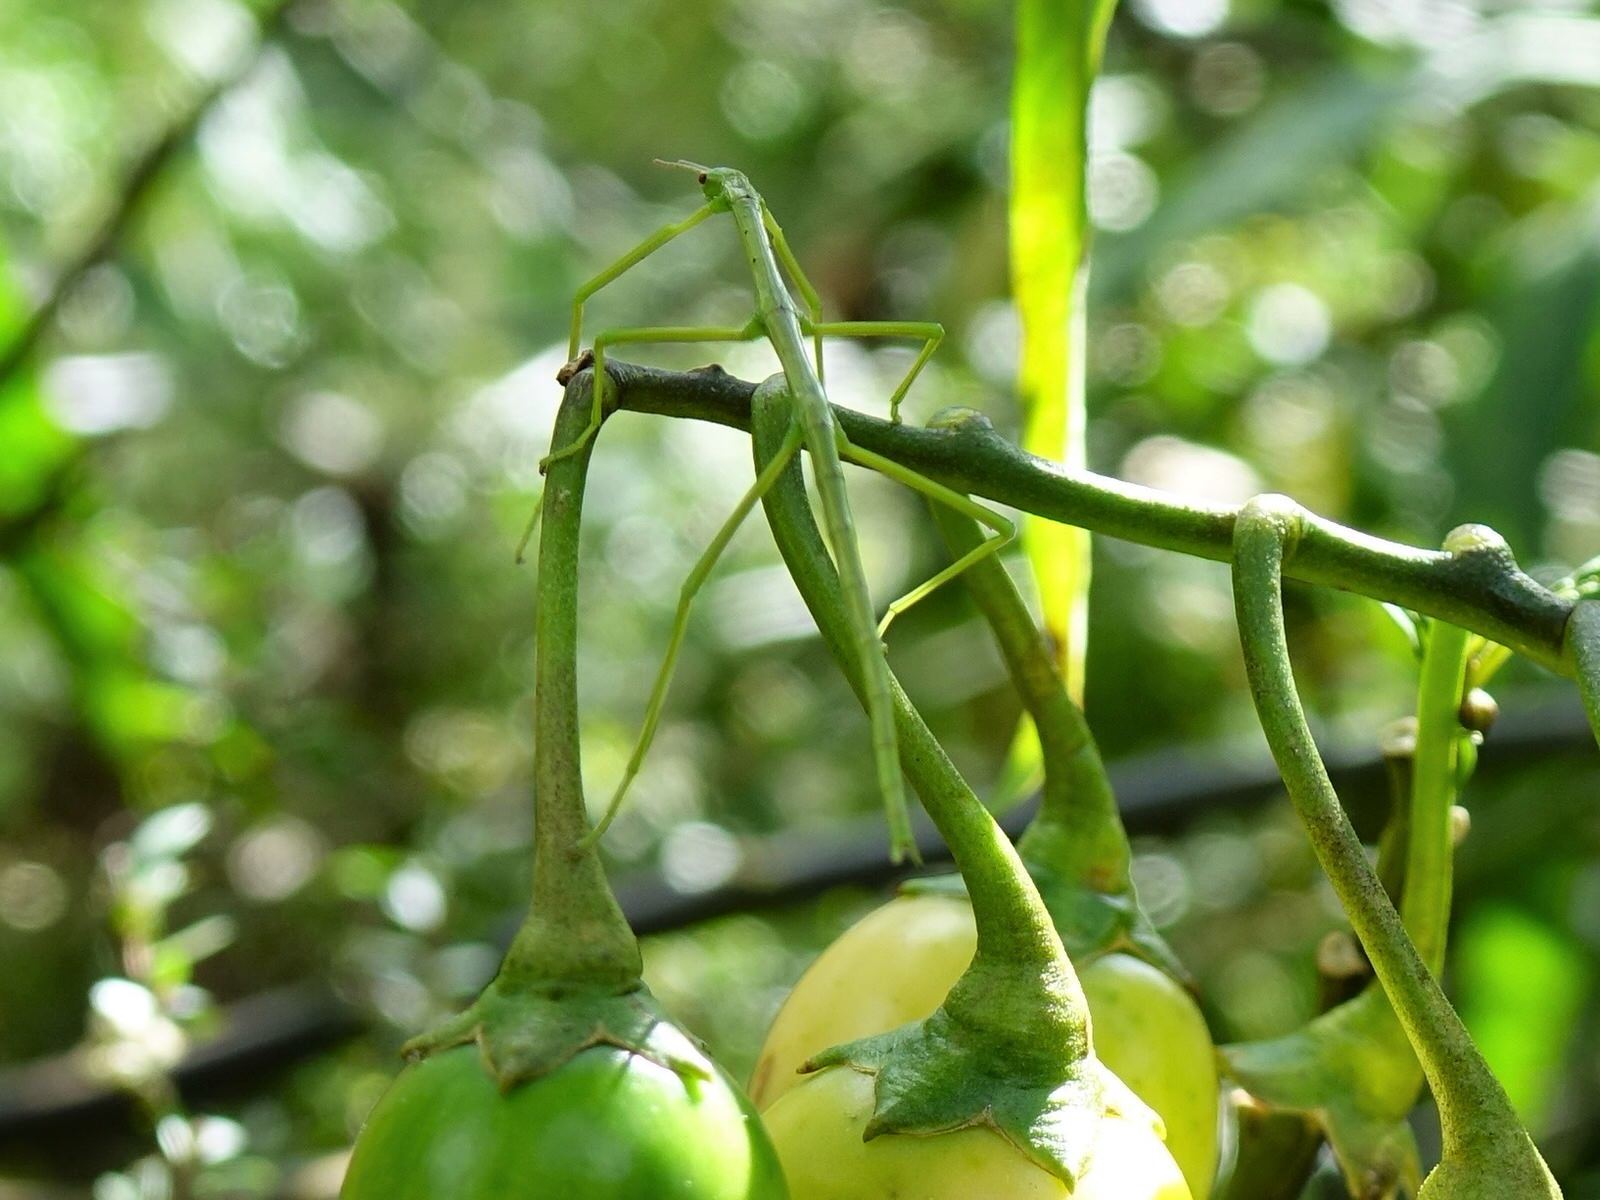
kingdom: Animalia
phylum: Arthropoda
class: Insecta
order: Phasmida
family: Phasmatidae
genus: Clitarchus
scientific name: Clitarchus hookeri
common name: Smooth stick insect
